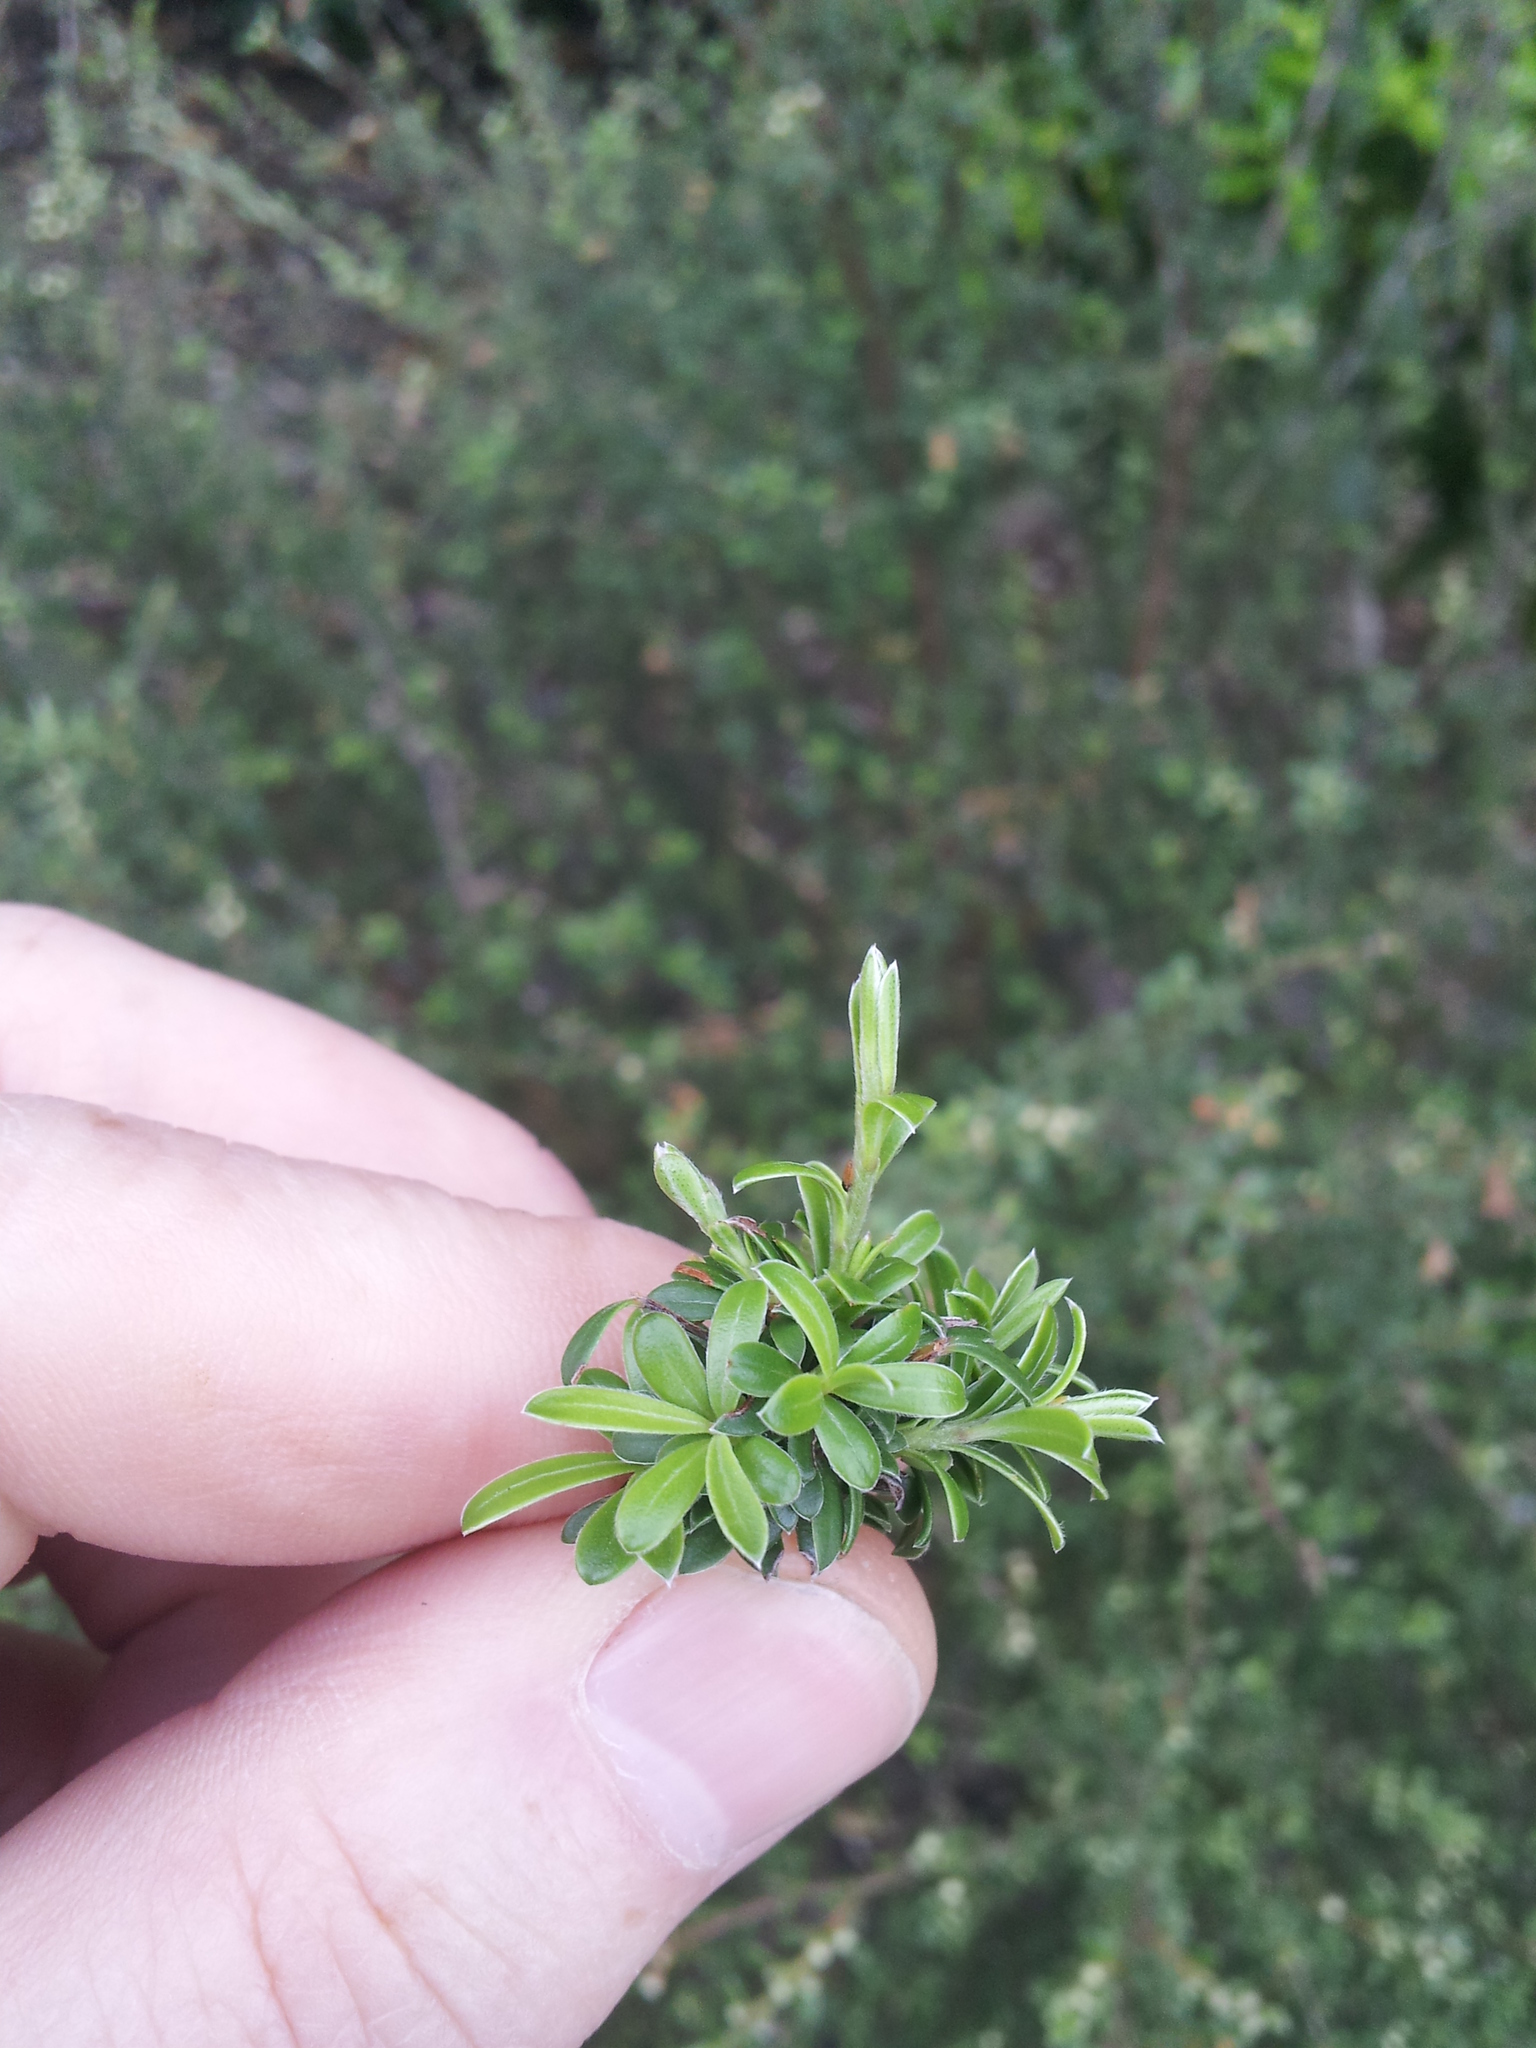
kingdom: Plantae
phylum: Tracheophyta
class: Magnoliopsida
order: Myrtales
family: Myrtaceae
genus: Kunzea
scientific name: Kunzea amathicola
